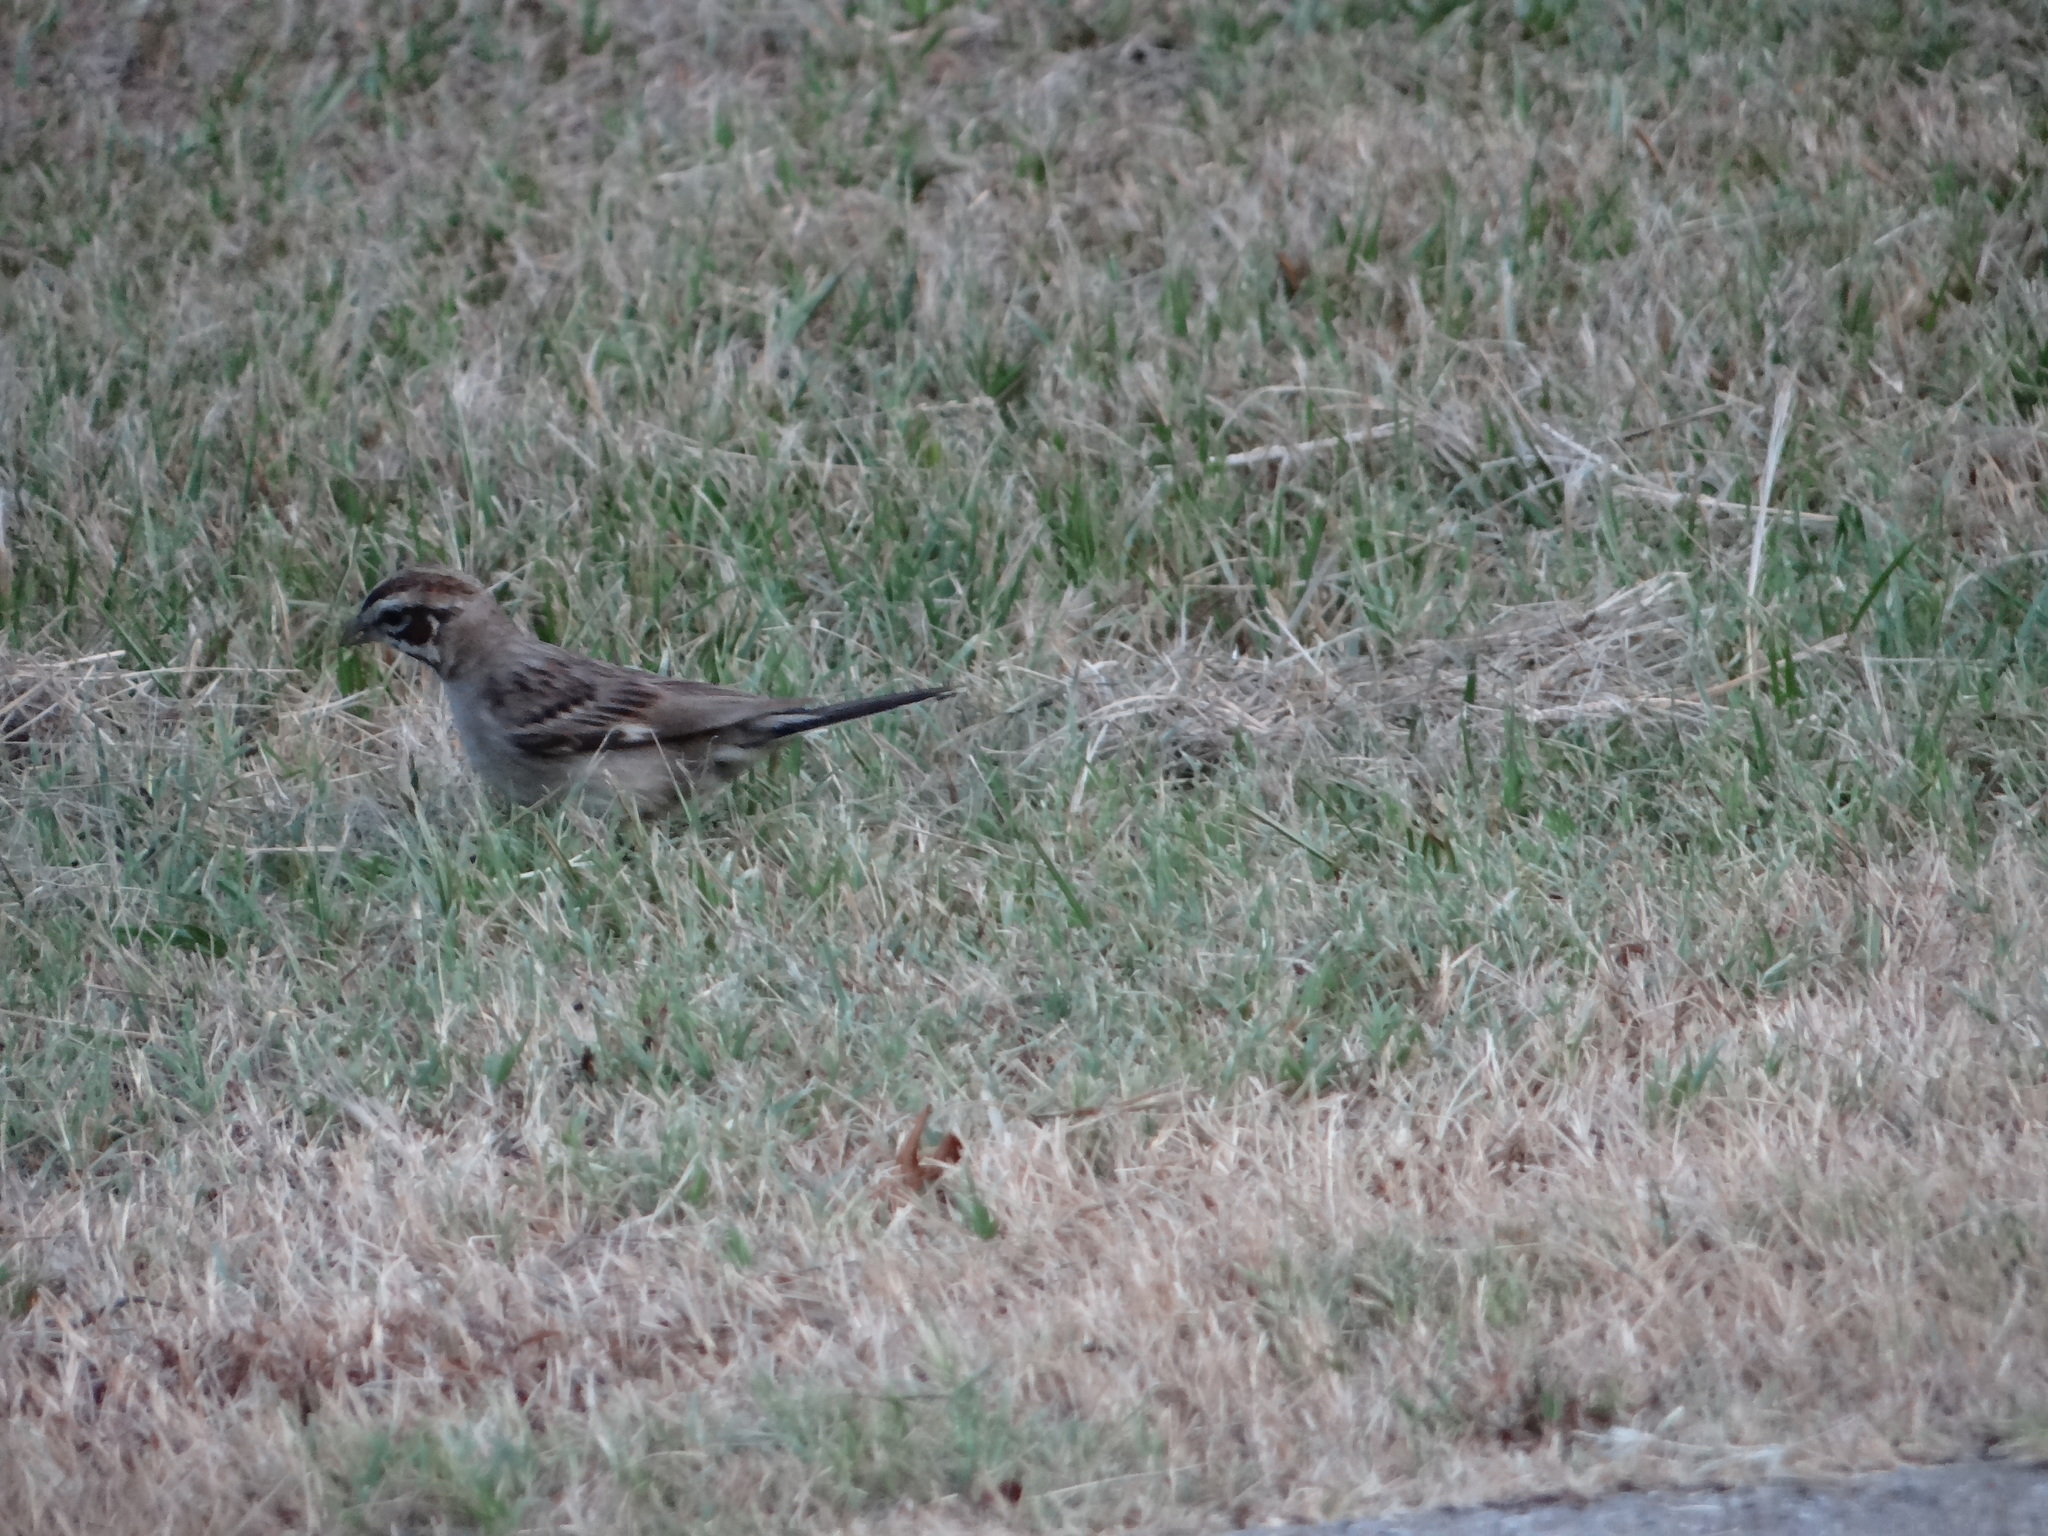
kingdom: Animalia
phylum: Chordata
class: Aves
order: Passeriformes
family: Passerellidae
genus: Chondestes
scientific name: Chondestes grammacus
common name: Lark sparrow
